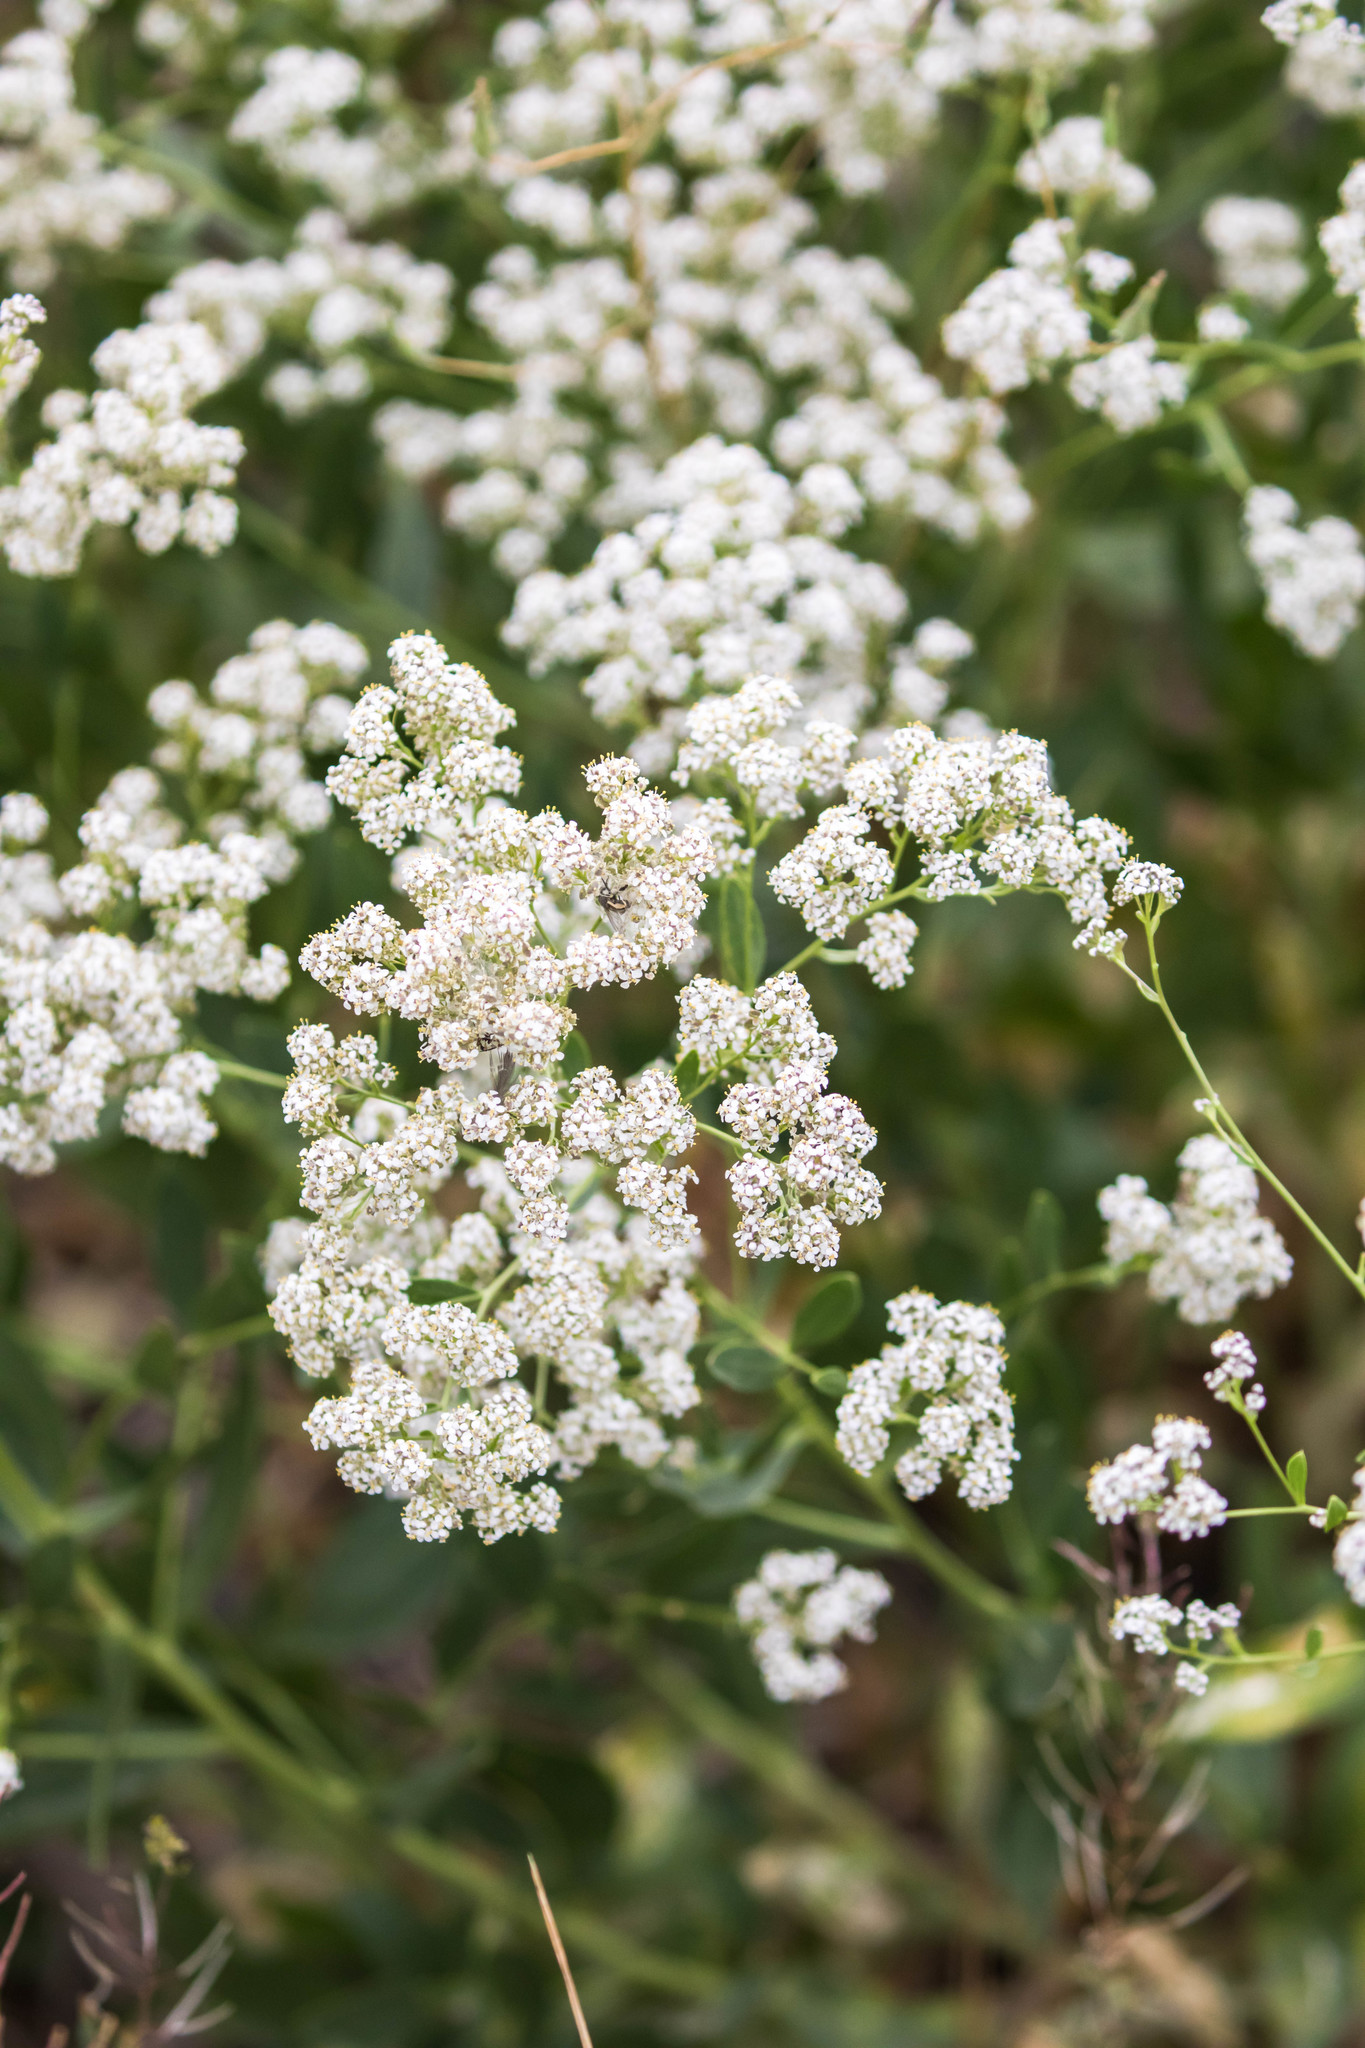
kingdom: Plantae
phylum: Tracheophyta
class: Magnoliopsida
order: Brassicales
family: Brassicaceae
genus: Lepidium
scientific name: Lepidium latifolium
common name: Dittander
